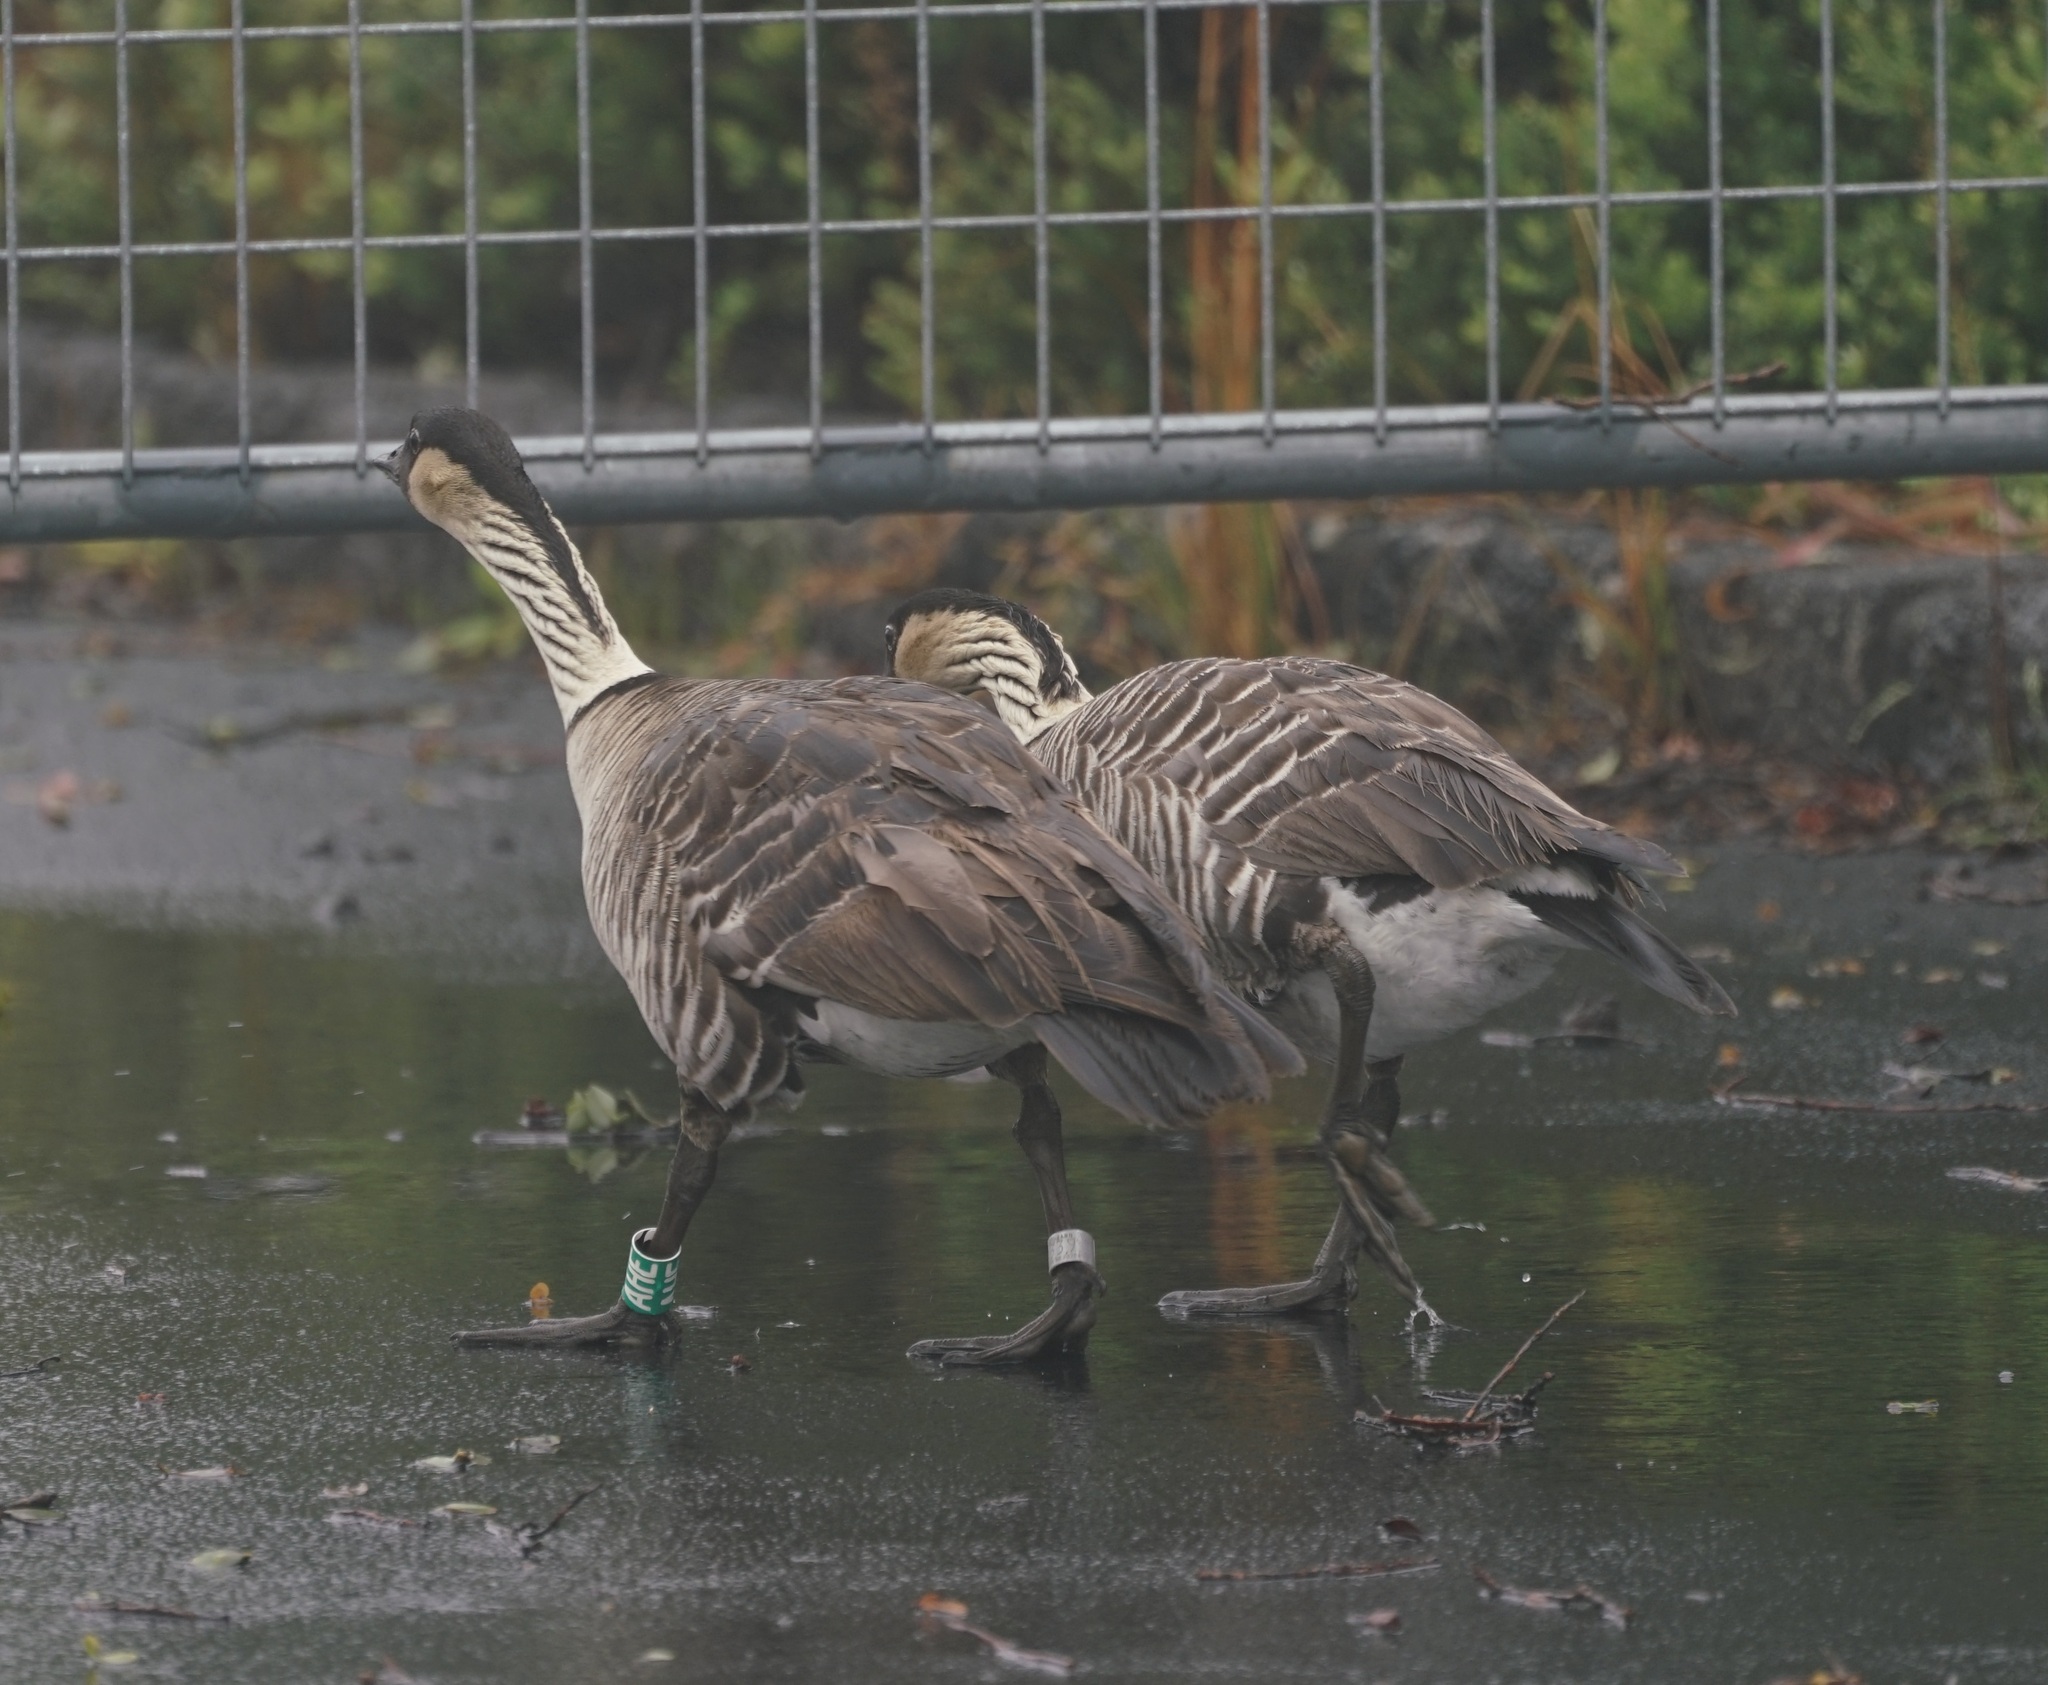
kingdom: Animalia
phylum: Chordata
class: Aves
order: Anseriformes
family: Anatidae
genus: Branta
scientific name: Branta sandvicensis
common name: Nene
